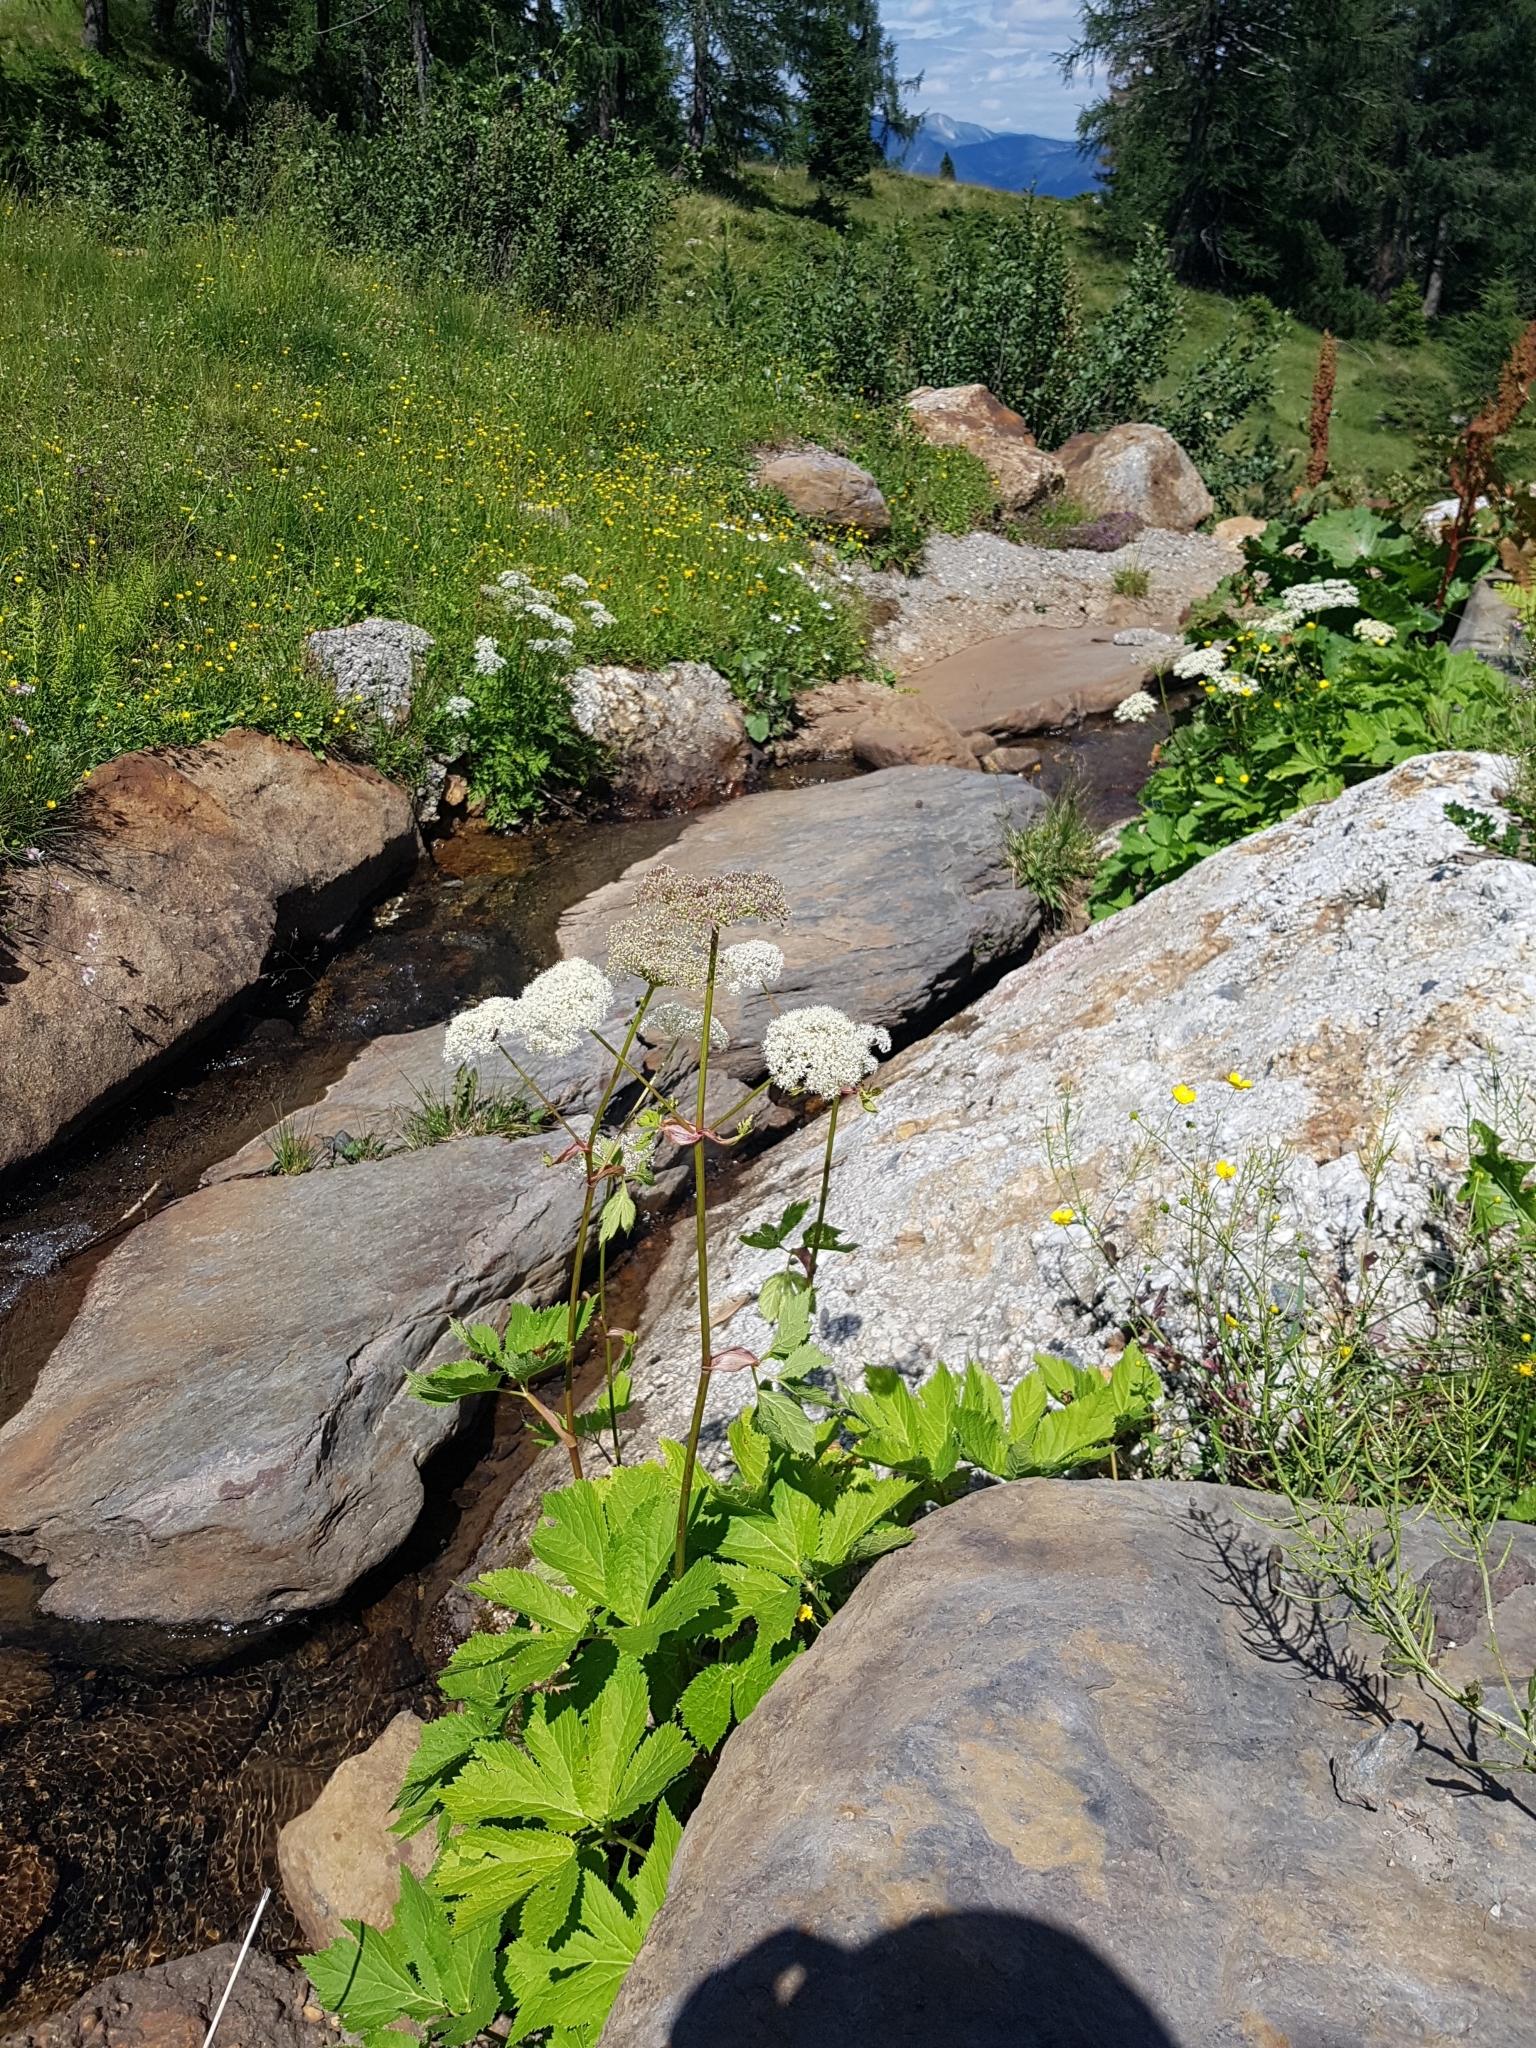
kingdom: Plantae
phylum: Tracheophyta
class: Magnoliopsida
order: Apiales
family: Apiaceae
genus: Imperatoria
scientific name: Imperatoria ostruthium
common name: Masterwort
